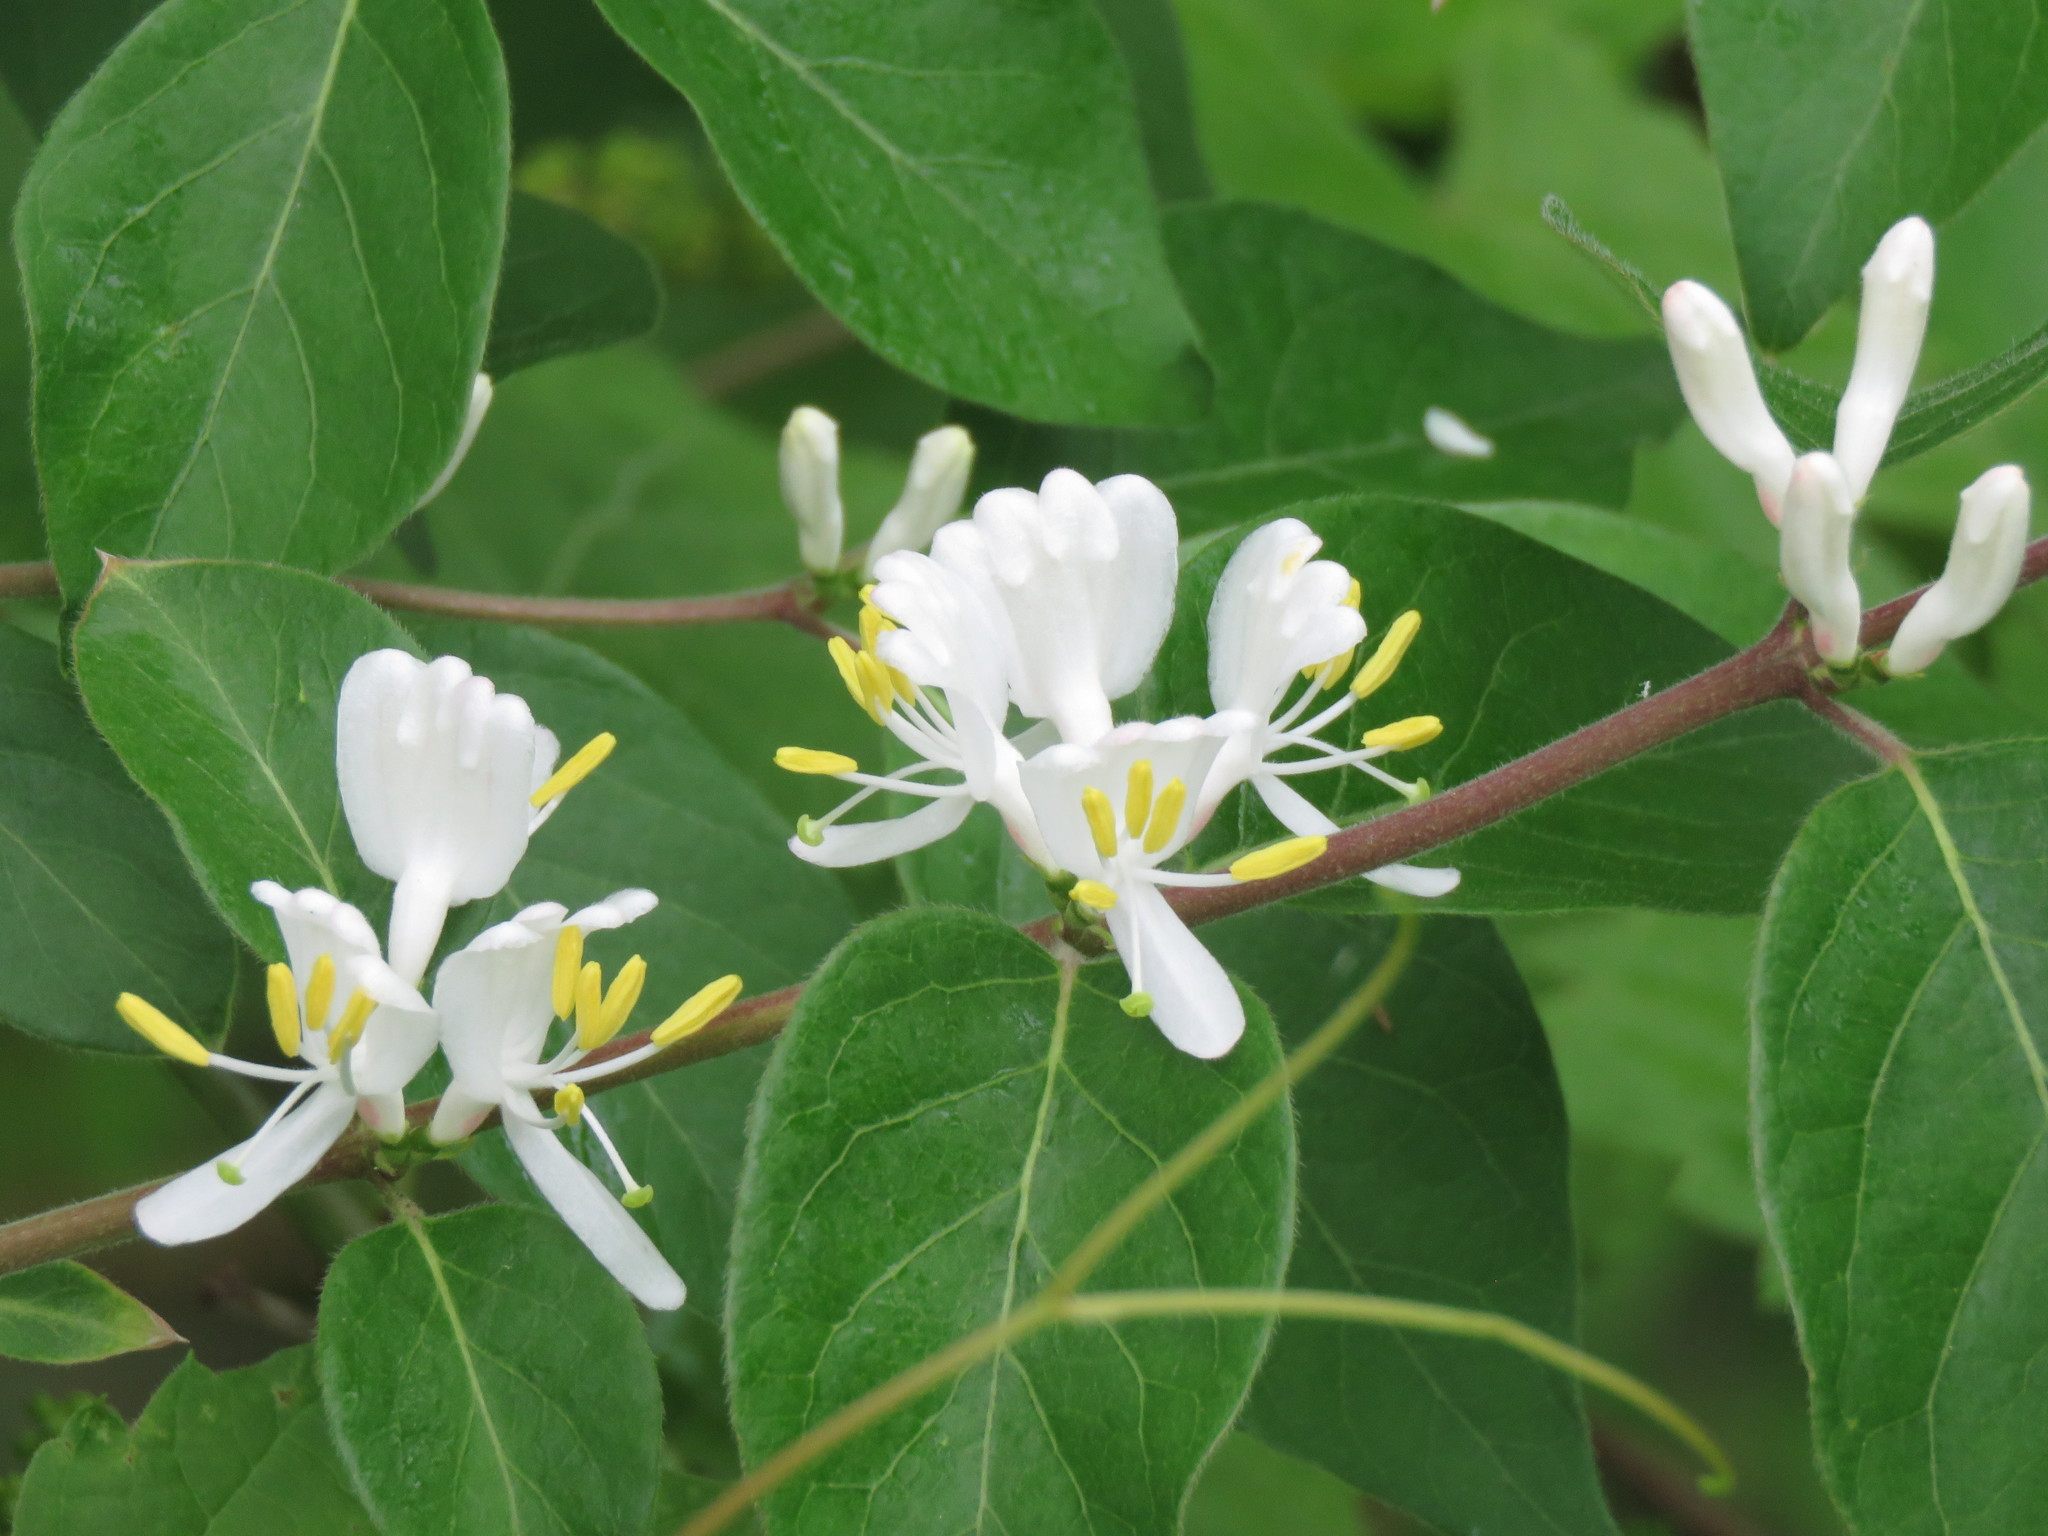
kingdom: Plantae
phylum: Tracheophyta
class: Magnoliopsida
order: Dipsacales
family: Caprifoliaceae
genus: Lonicera
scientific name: Lonicera maackii
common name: Amur honeysuckle
